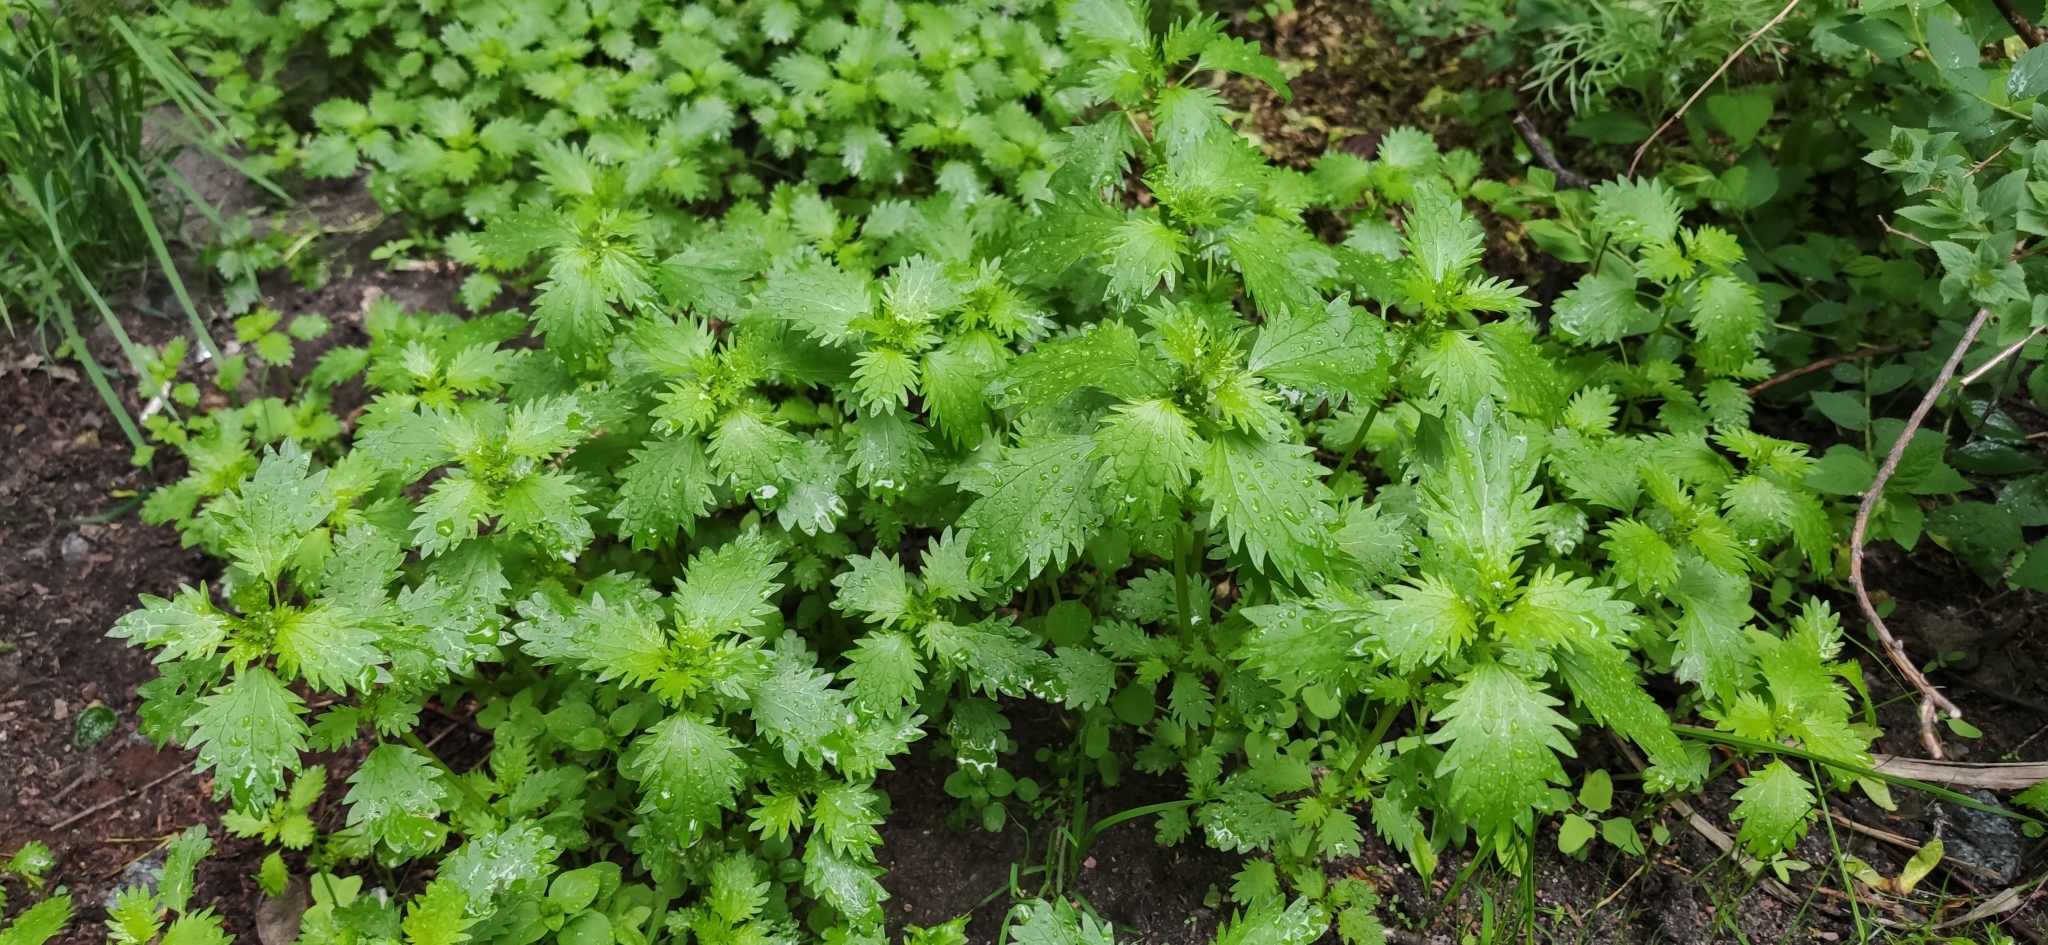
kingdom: Plantae
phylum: Tracheophyta
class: Magnoliopsida
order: Rosales
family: Urticaceae
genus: Urtica
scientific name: Urtica urens
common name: Dwarf nettle
